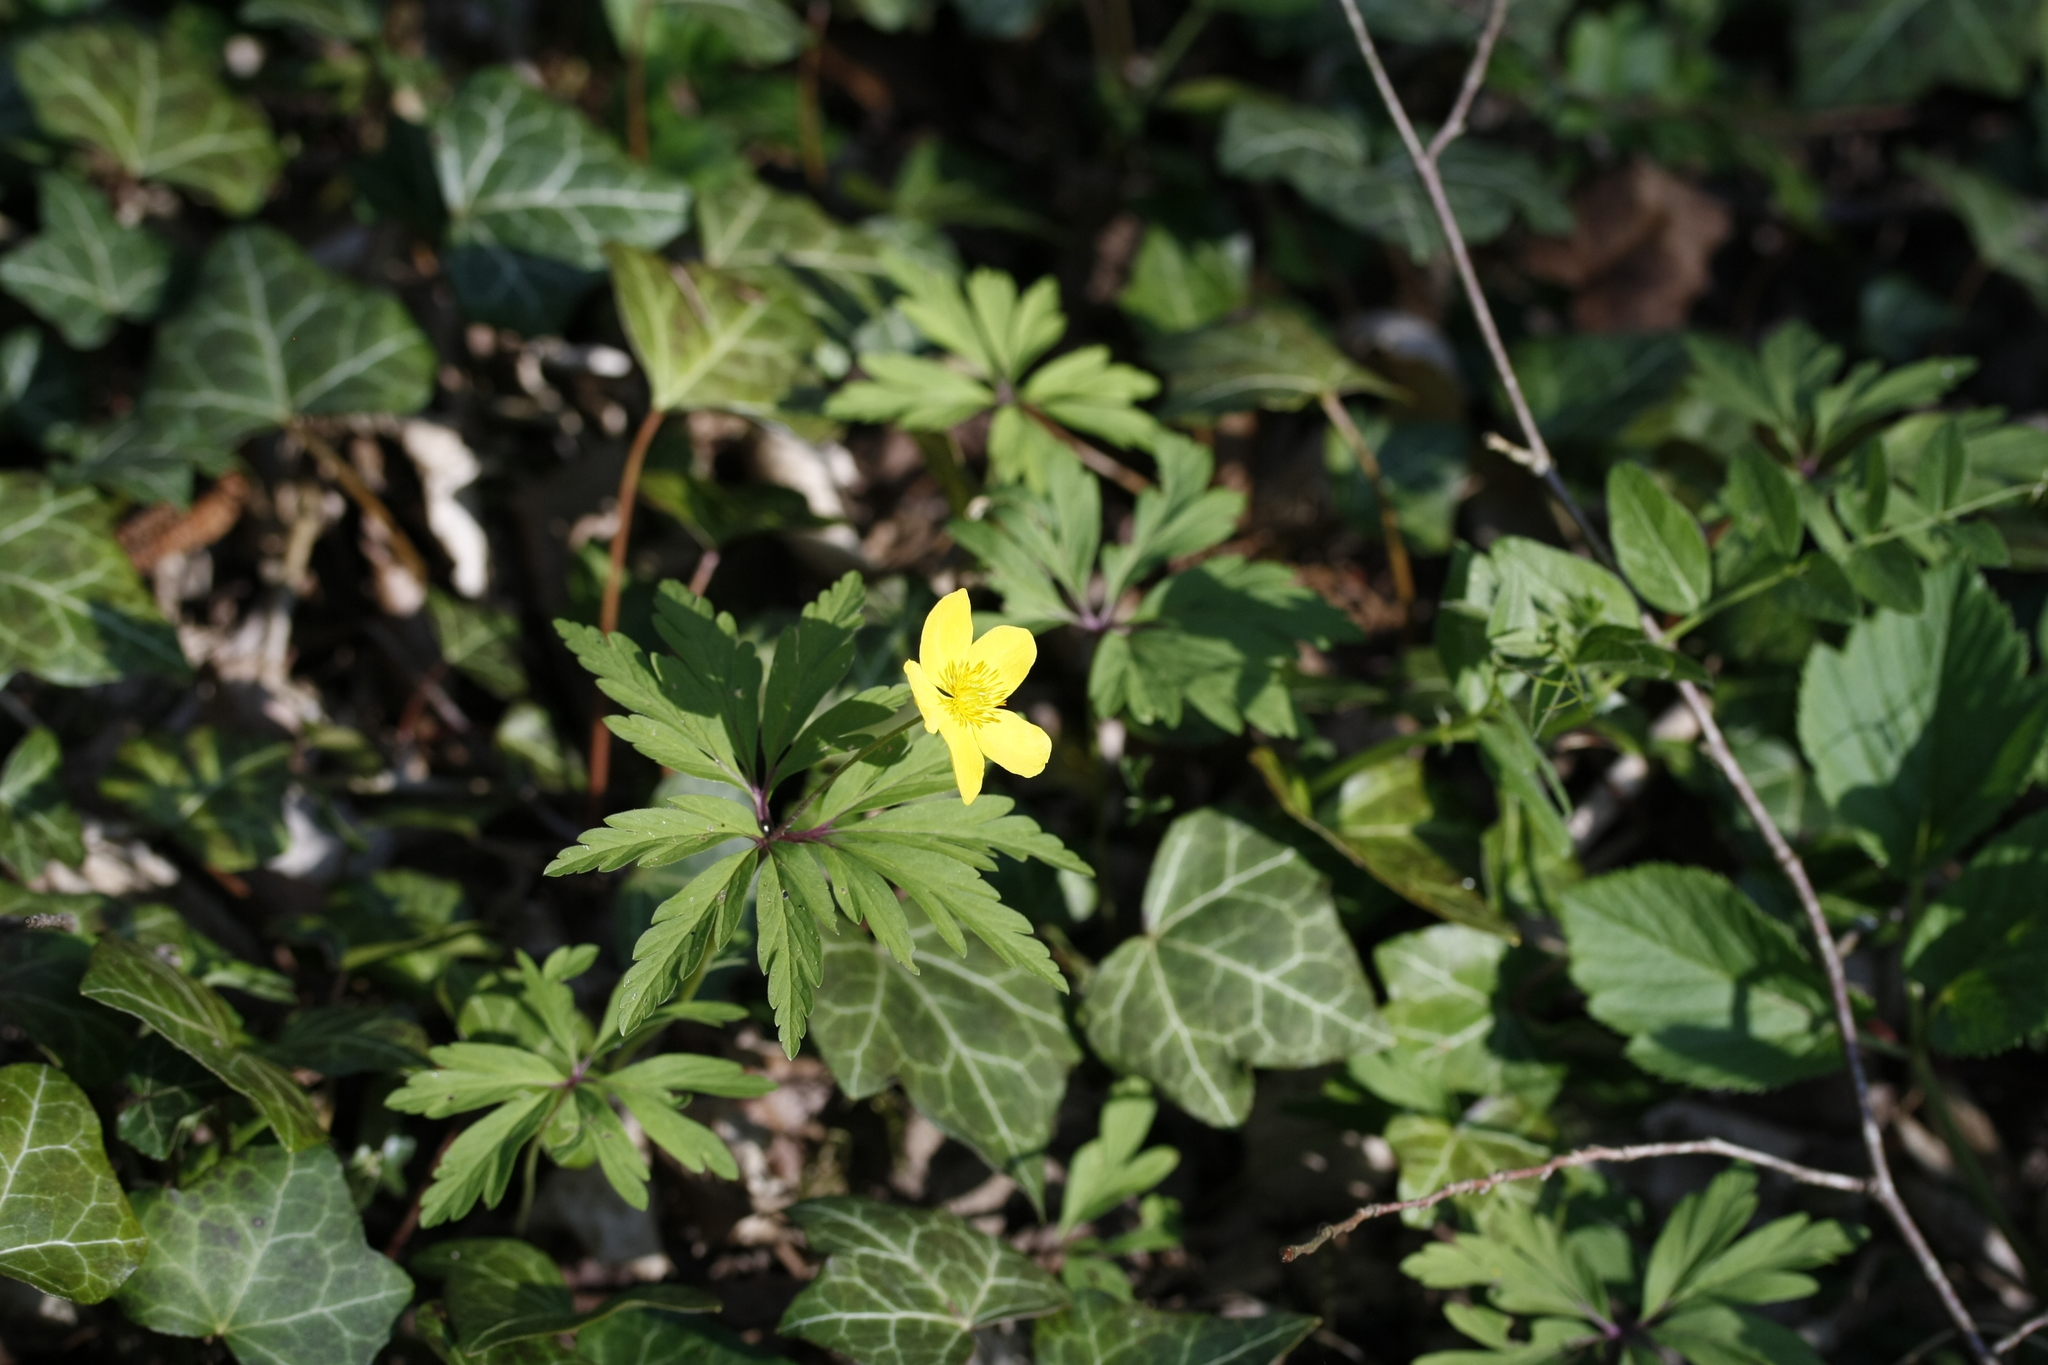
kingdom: Plantae
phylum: Tracheophyta
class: Magnoliopsida
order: Ranunculales
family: Ranunculaceae
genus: Anemone
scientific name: Anemone ranunculoides
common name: Yellow anemone
